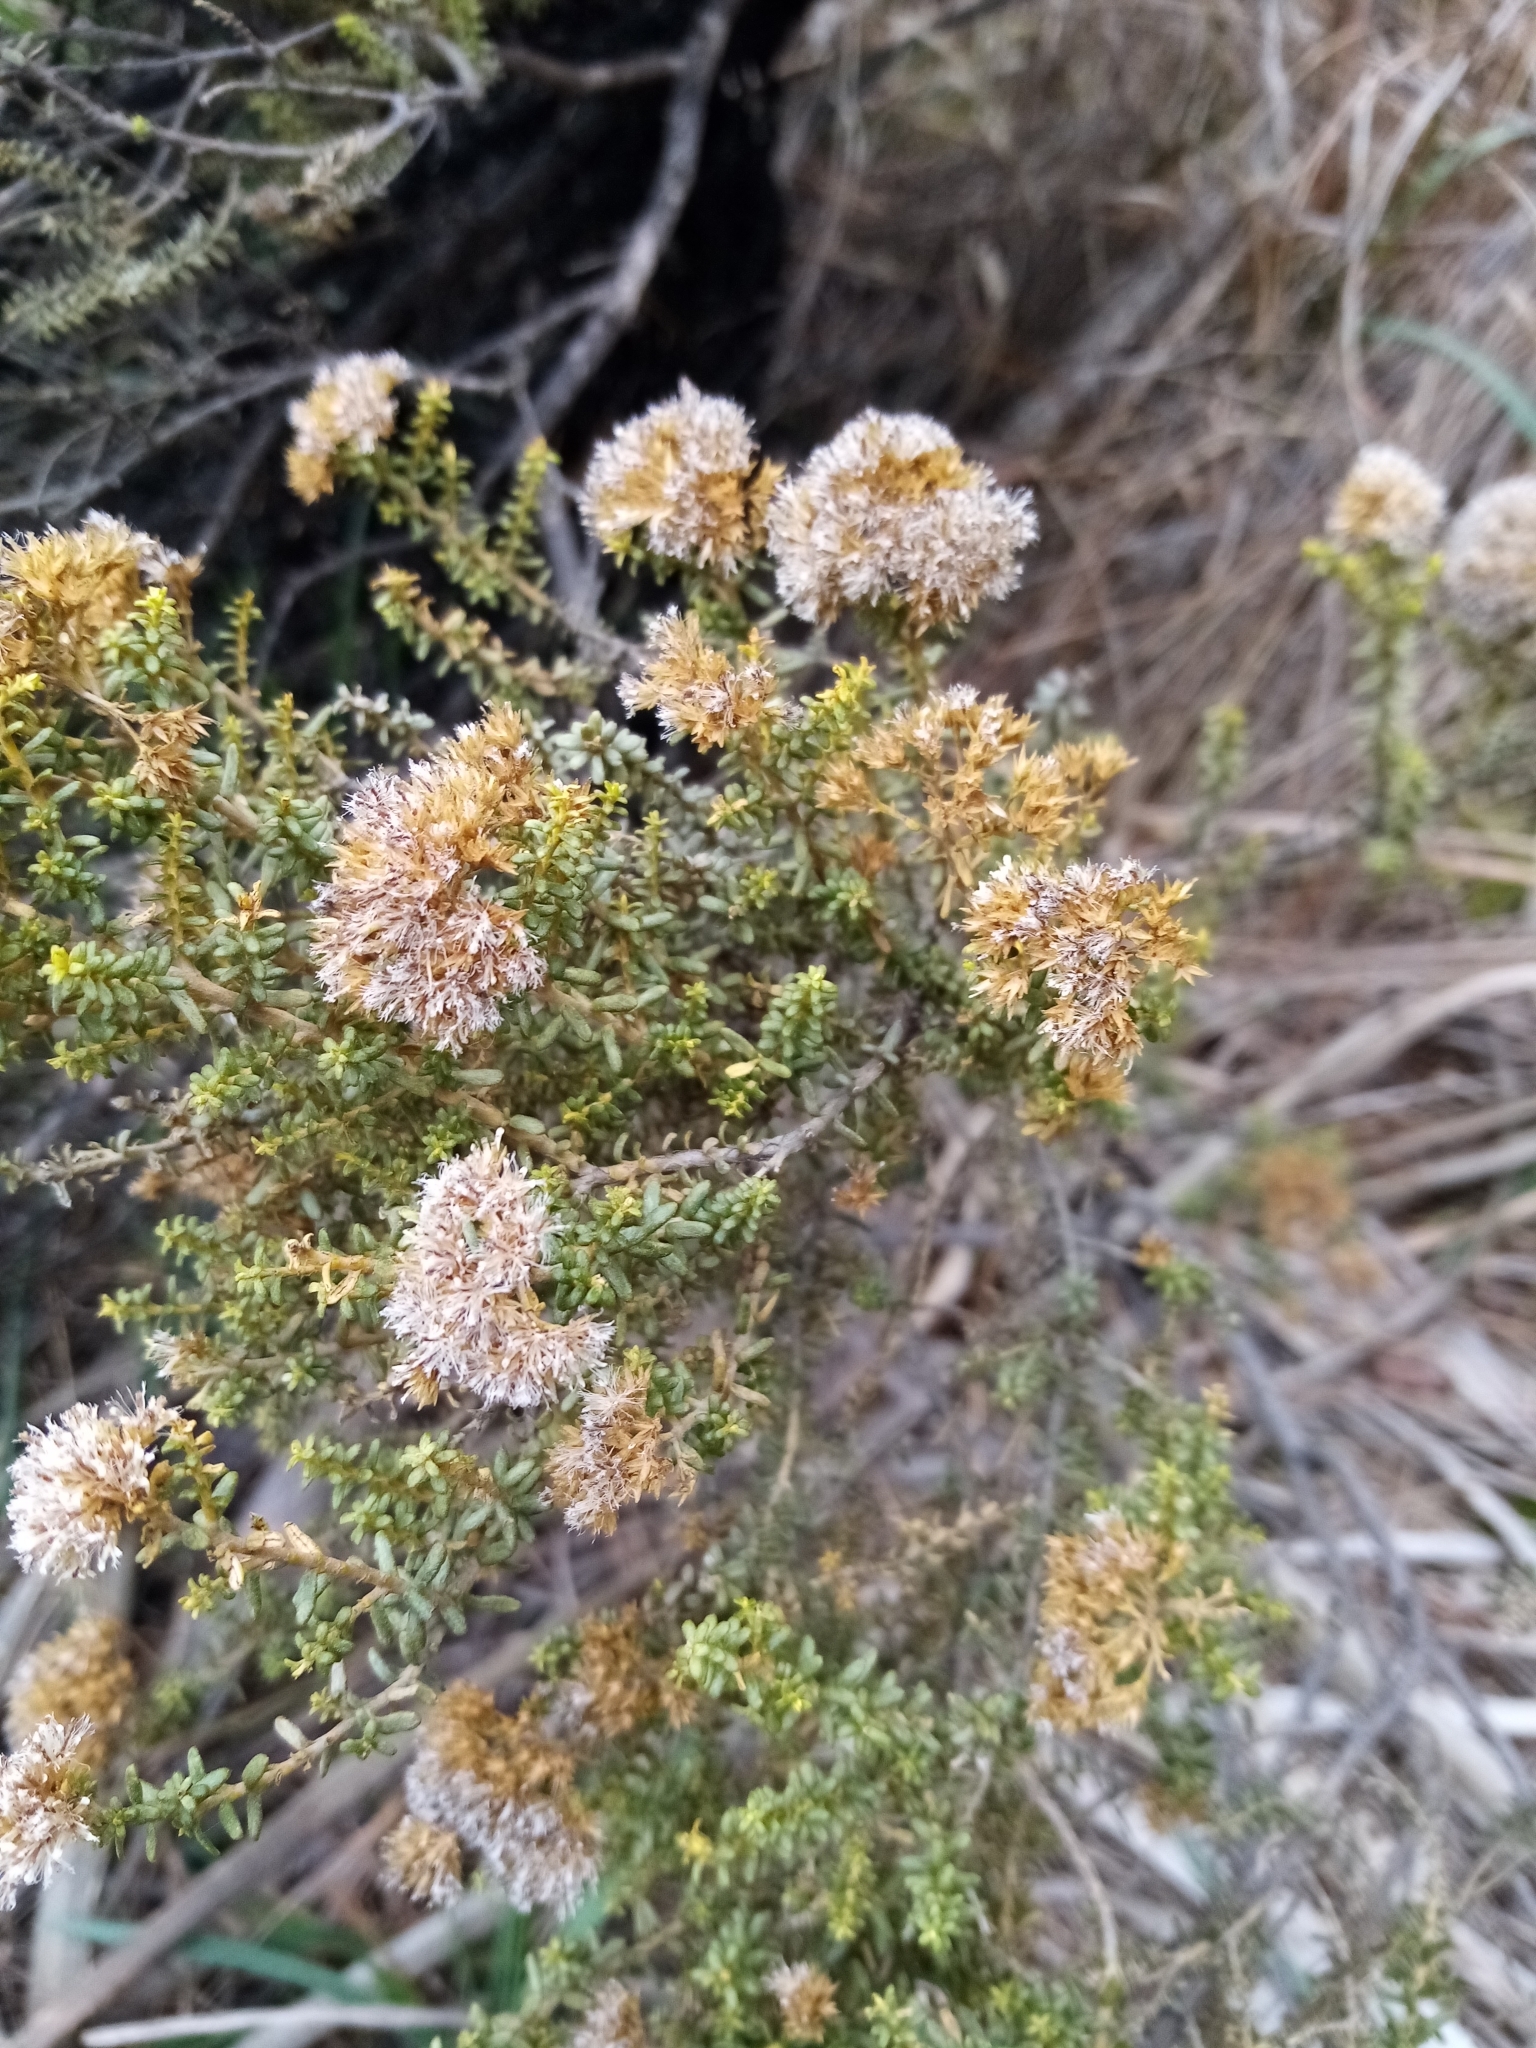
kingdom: Plantae
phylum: Tracheophyta
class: Magnoliopsida
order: Asterales
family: Asteraceae
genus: Ozothamnus
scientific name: Ozothamnus leptophyllus
